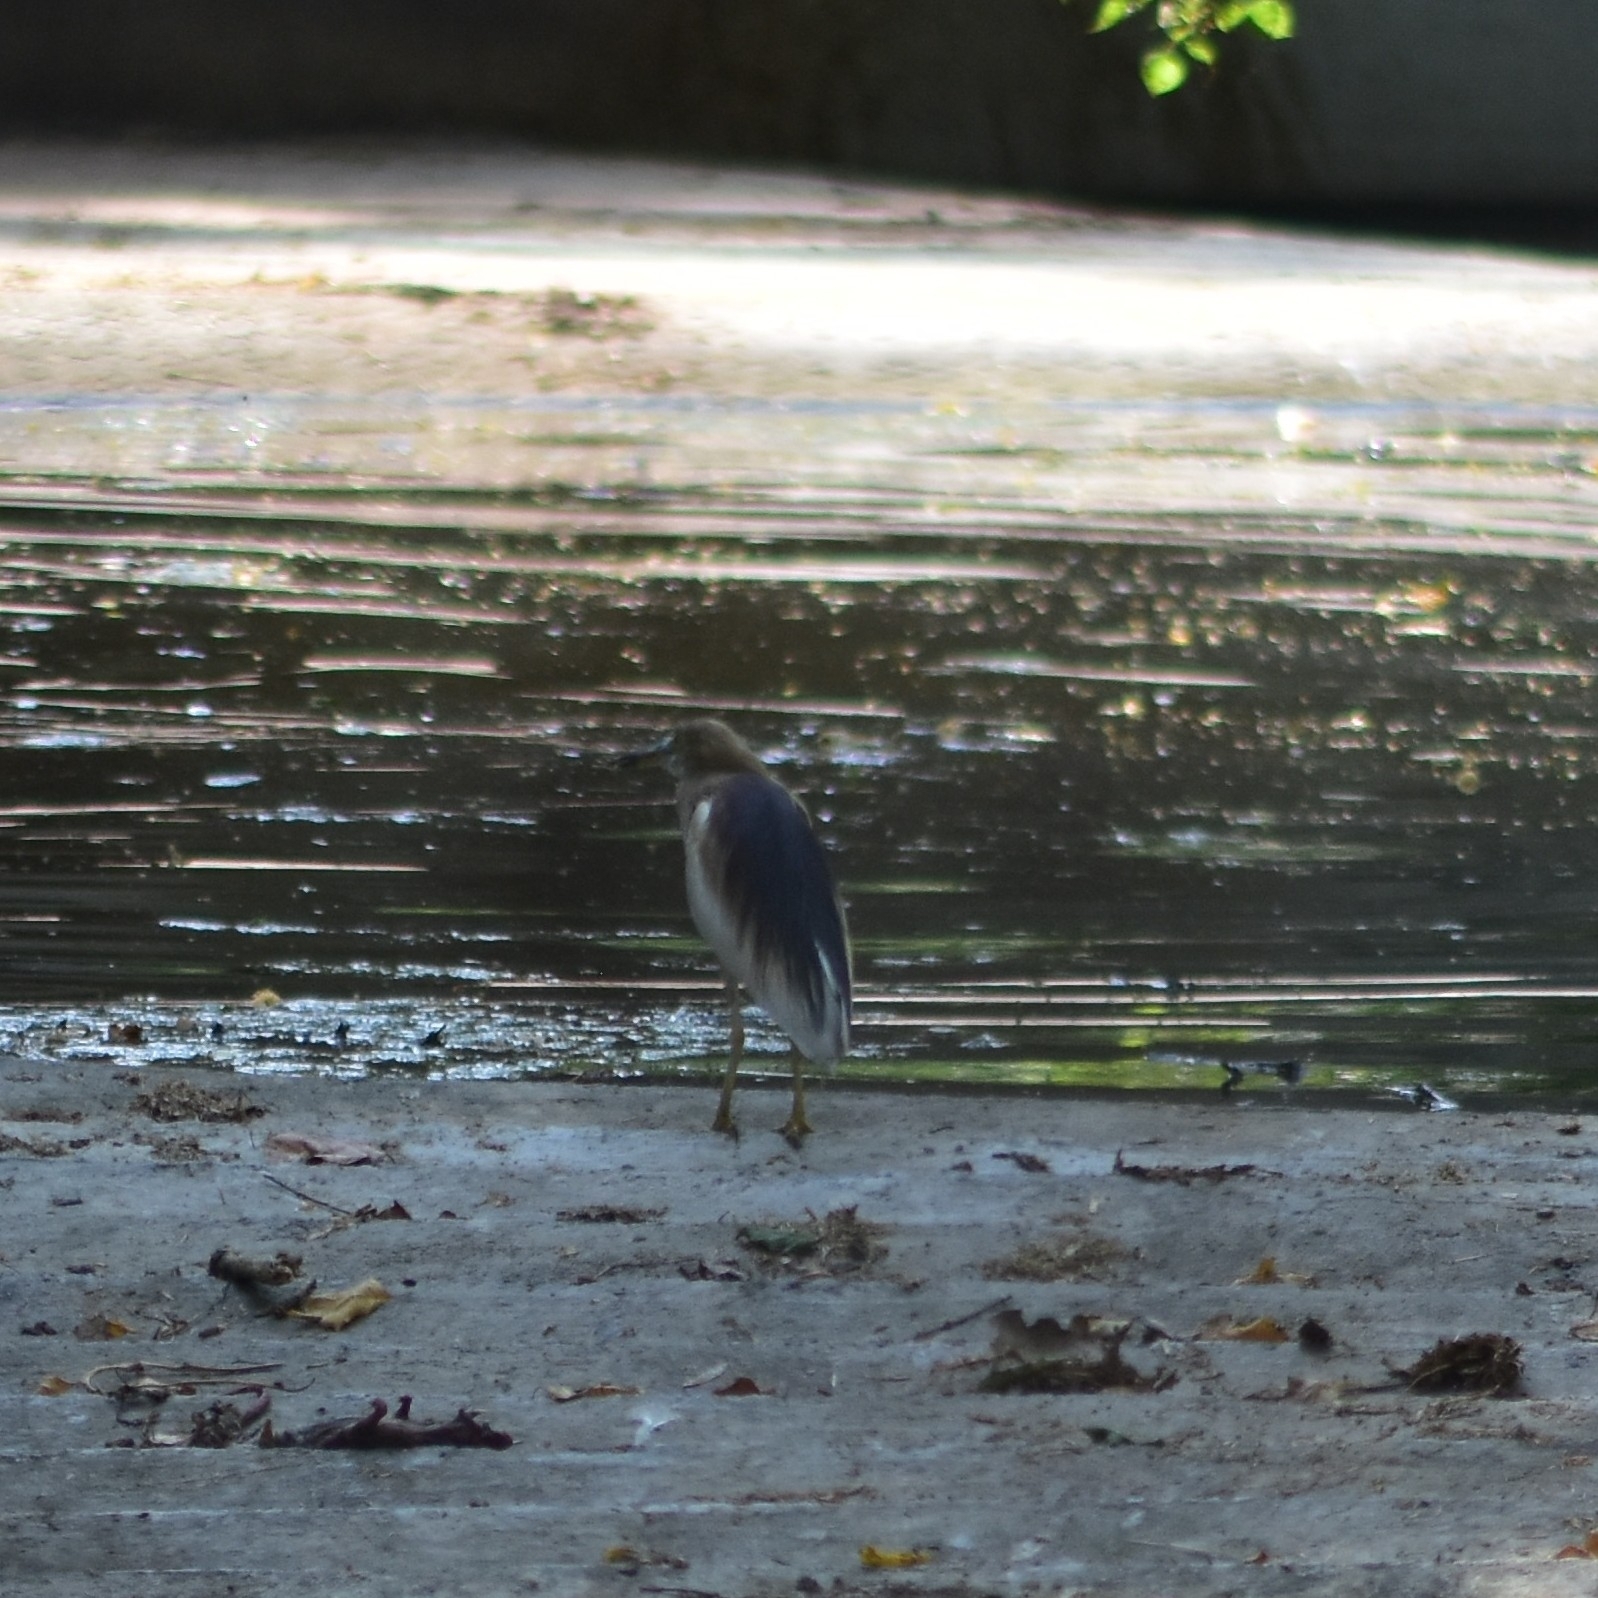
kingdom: Animalia
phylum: Chordata
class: Aves
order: Pelecaniformes
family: Ardeidae
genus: Ardeola
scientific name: Ardeola grayii
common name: Indian pond heron
